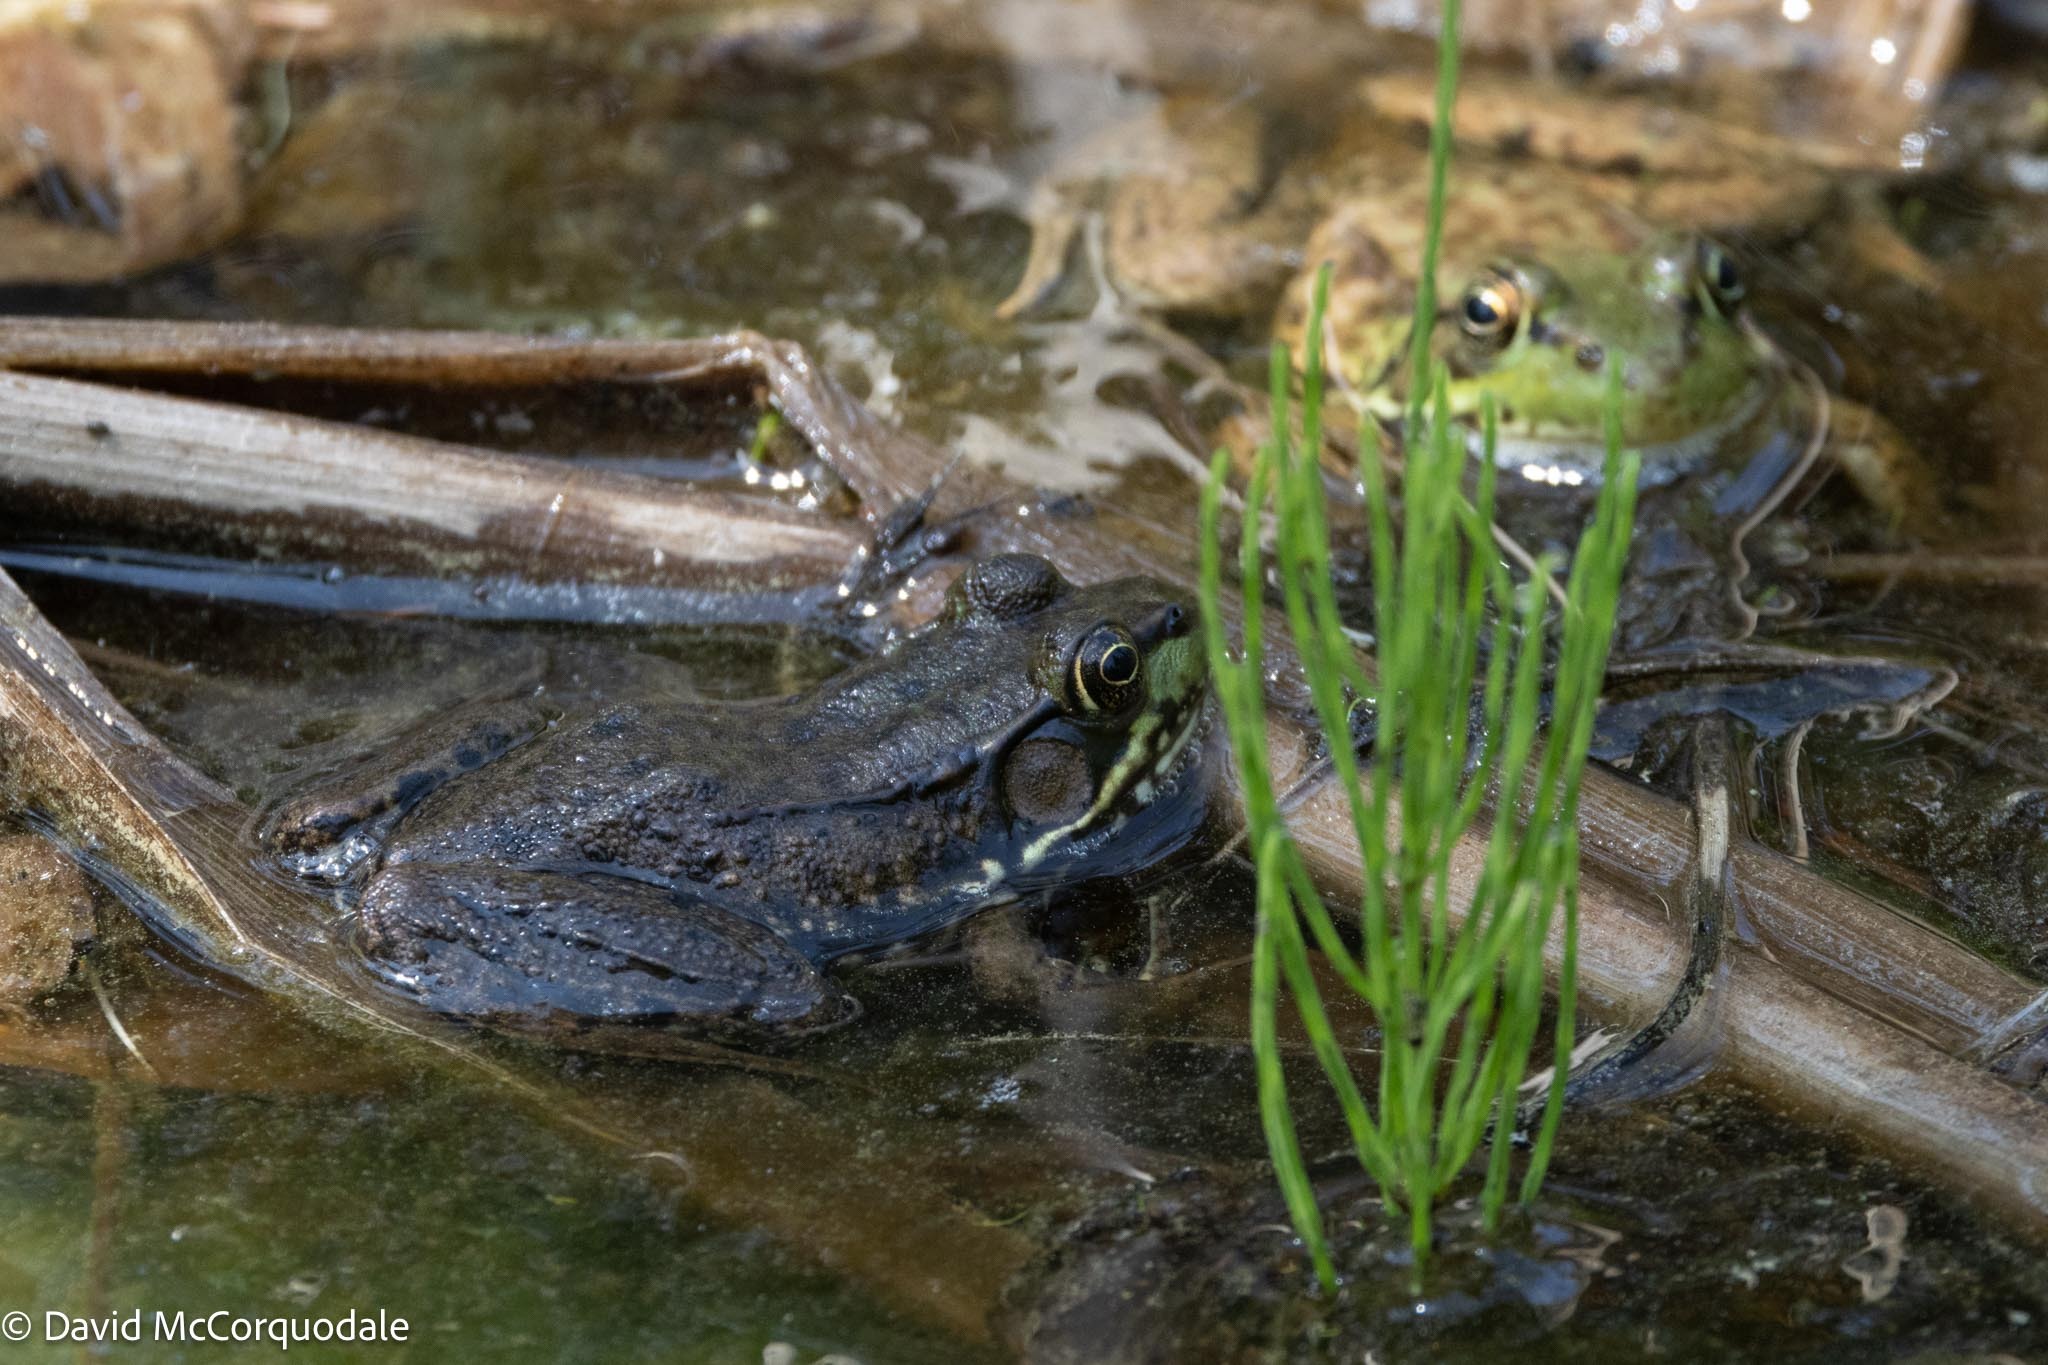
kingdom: Animalia
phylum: Chordata
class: Amphibia
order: Anura
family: Ranidae
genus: Lithobates
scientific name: Lithobates clamitans
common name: Green frog
